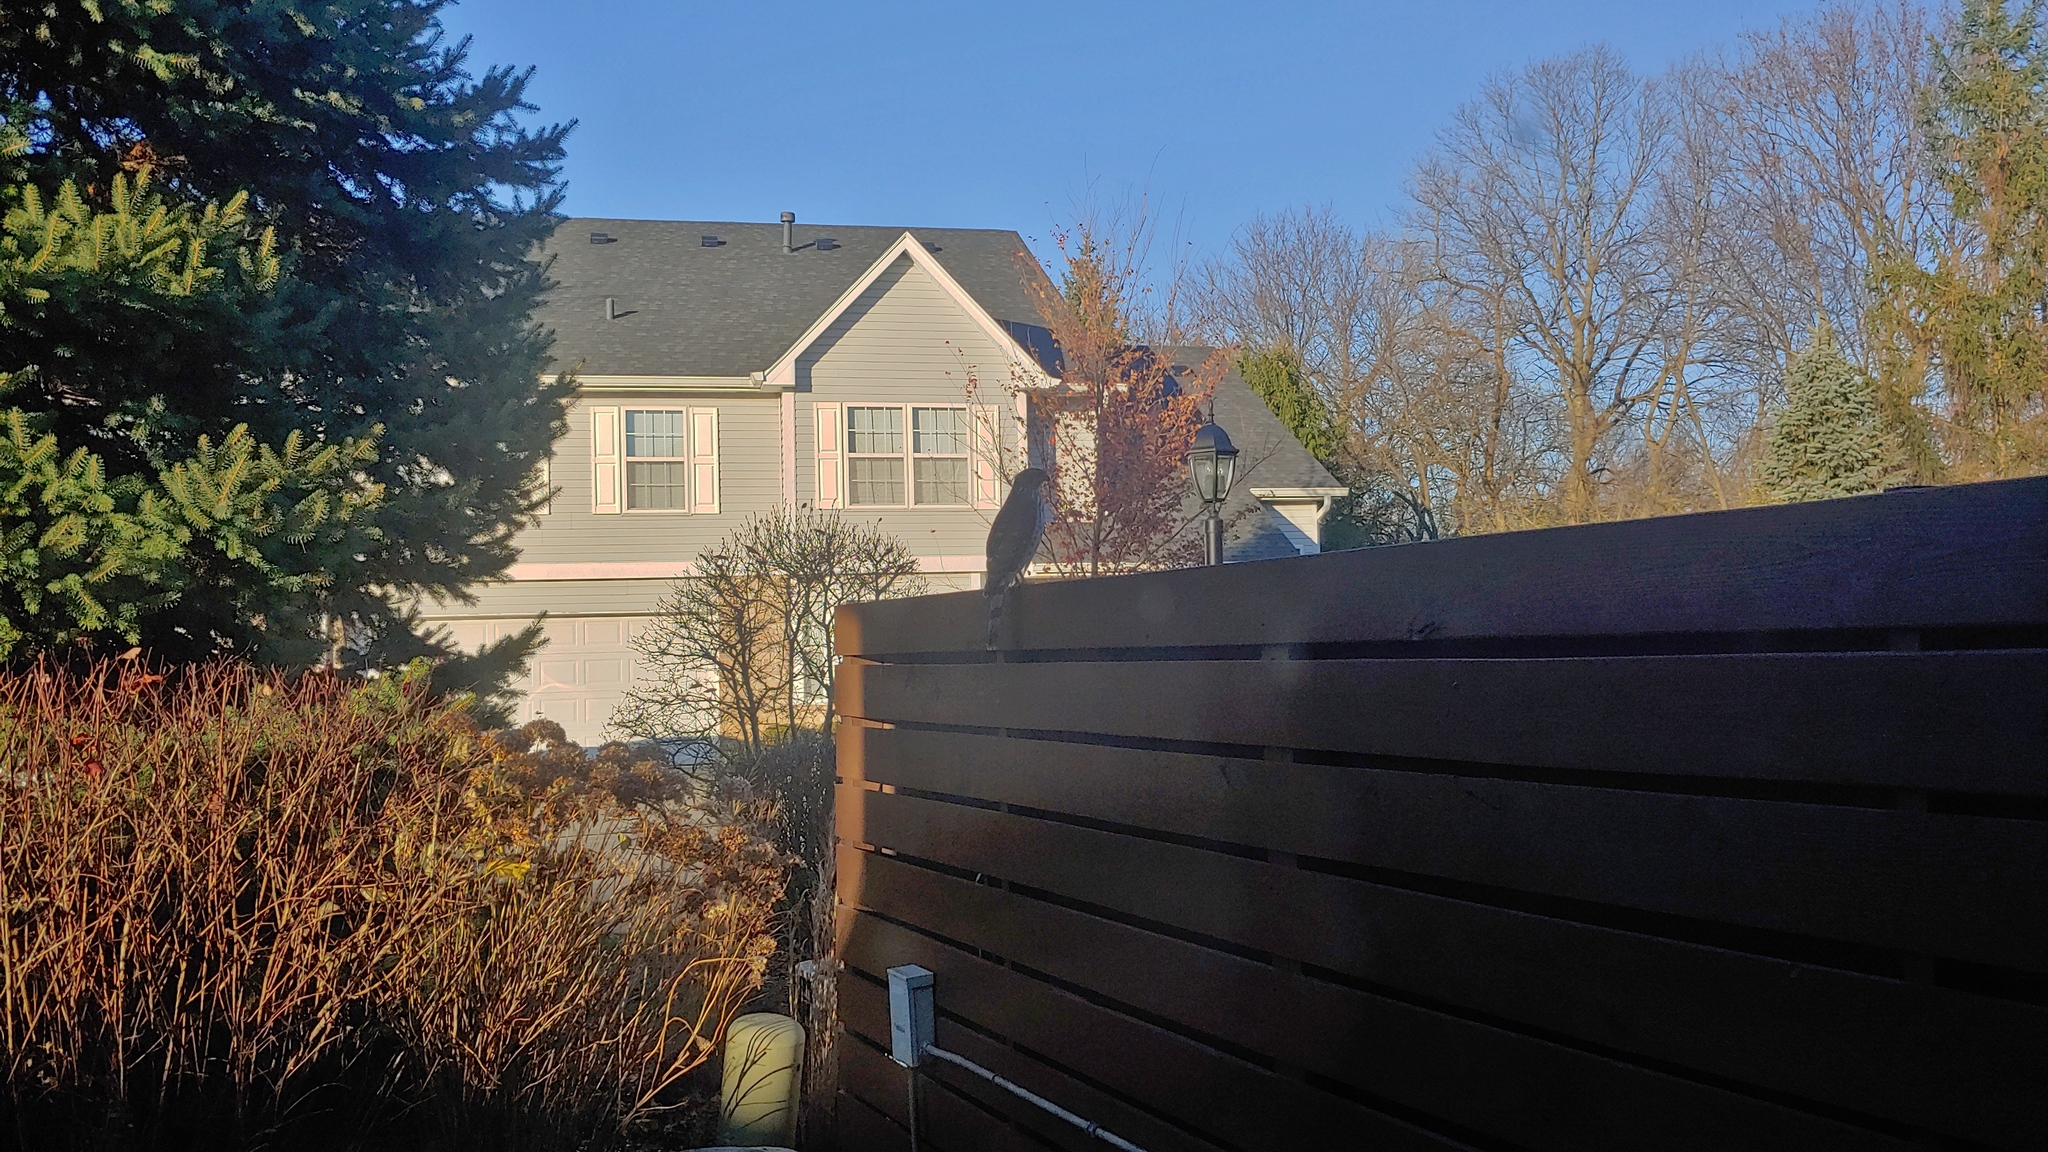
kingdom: Animalia
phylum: Chordata
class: Aves
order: Accipitriformes
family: Accipitridae
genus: Accipiter
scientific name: Accipiter cooperii
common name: Cooper's hawk
